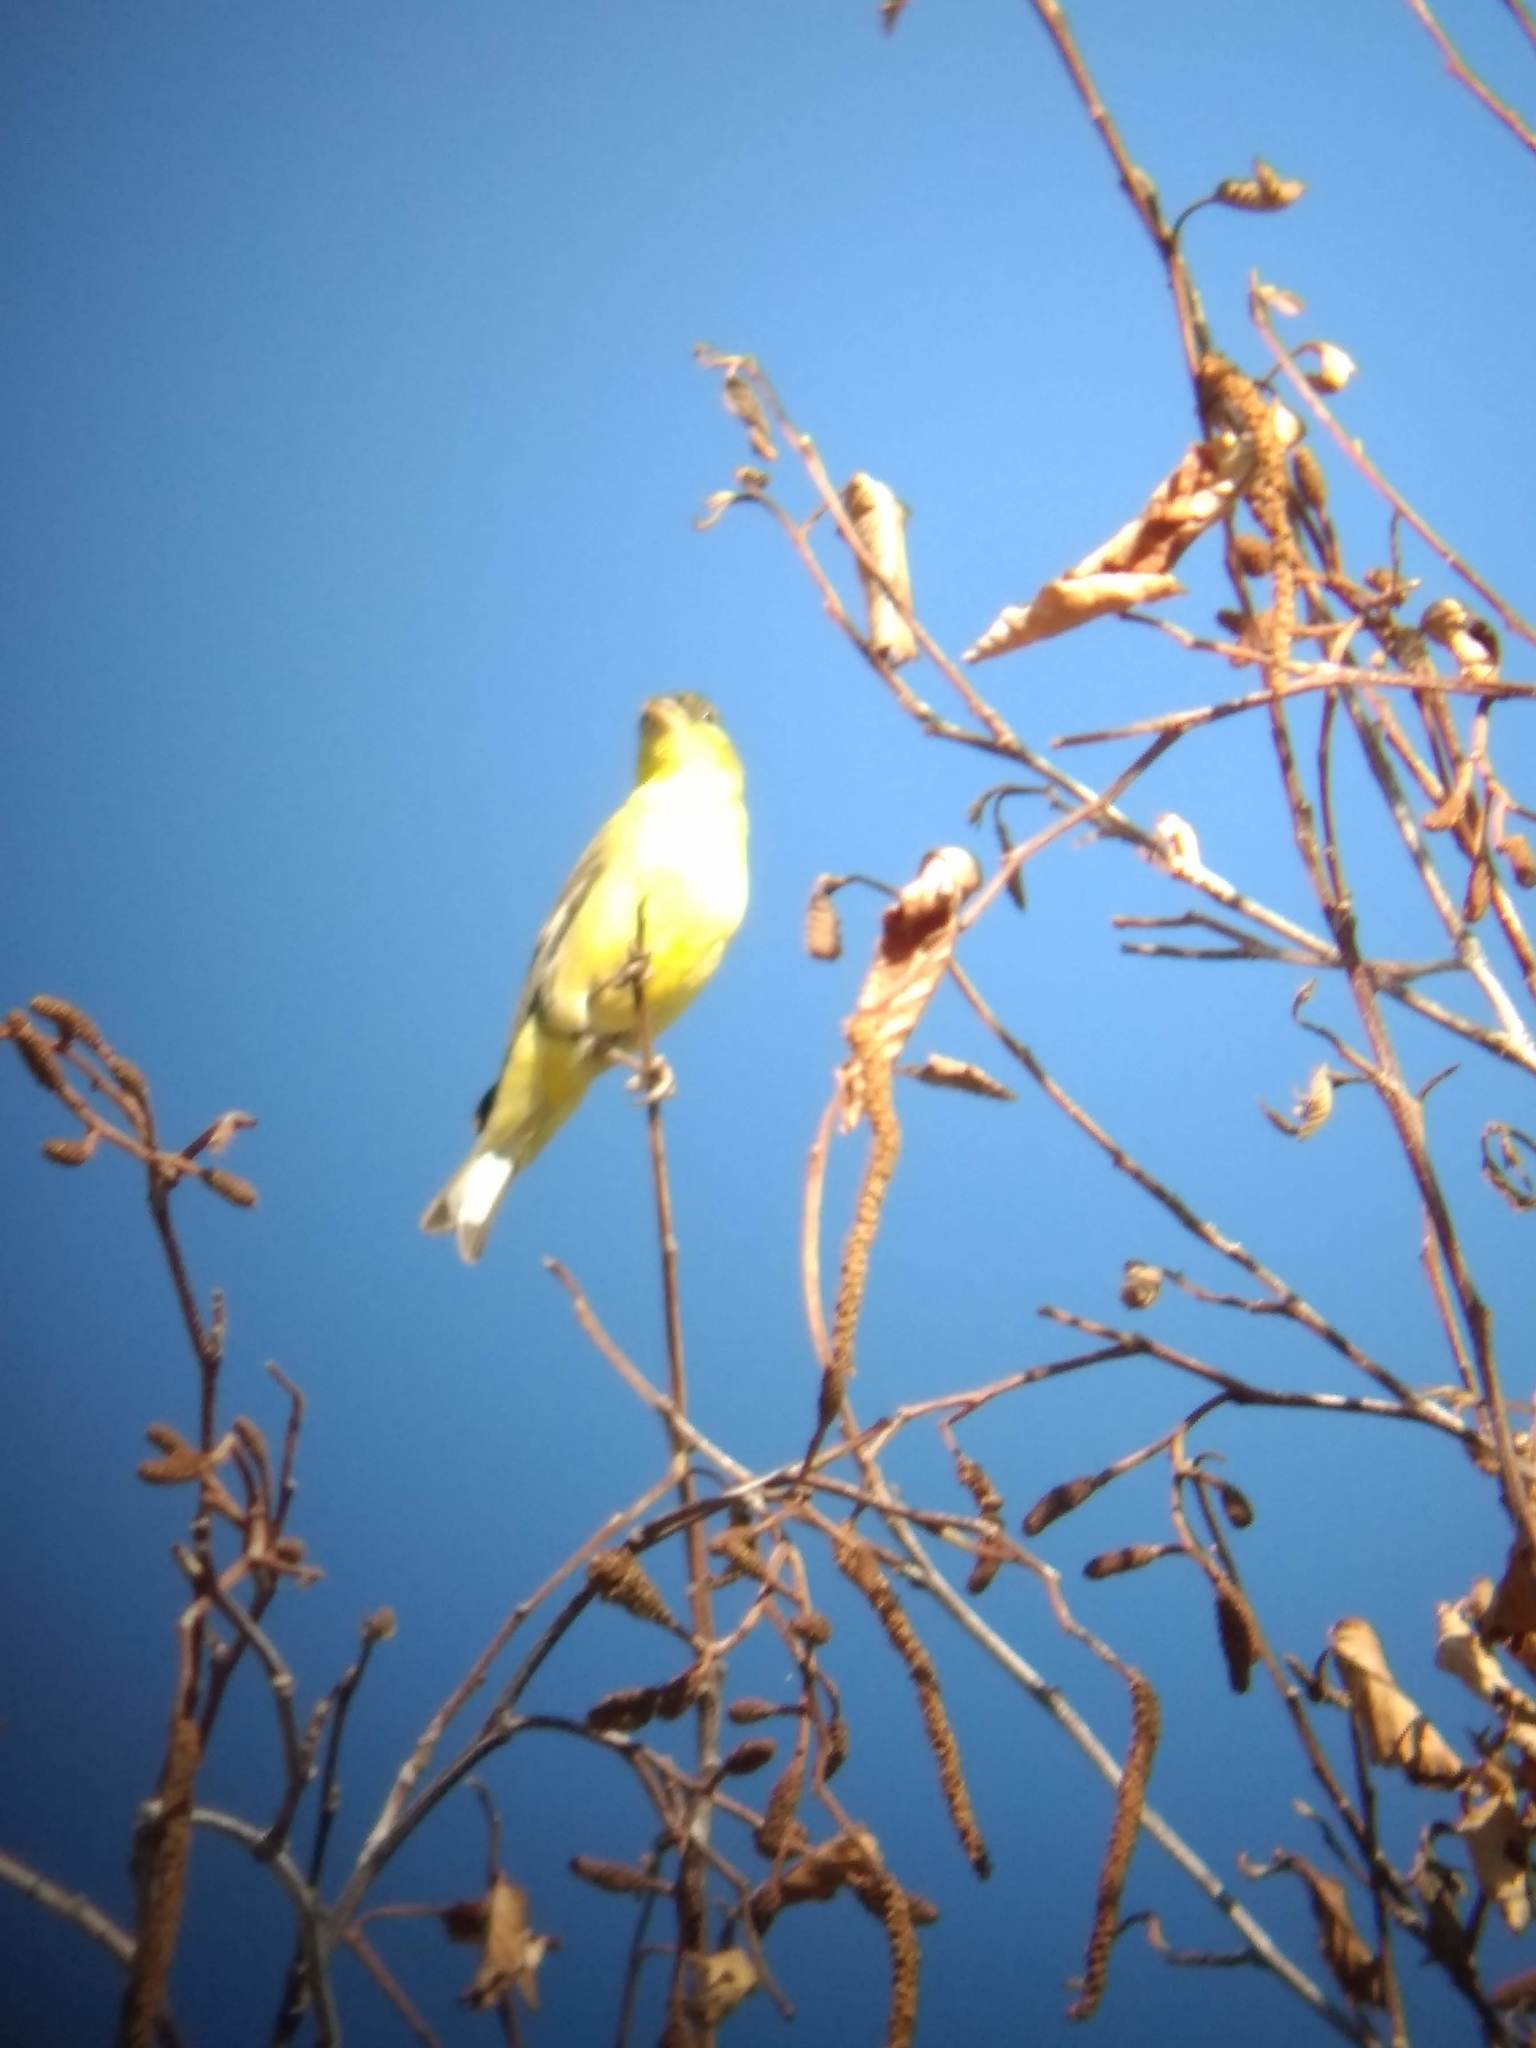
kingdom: Animalia
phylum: Chordata
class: Aves
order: Passeriformes
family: Fringillidae
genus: Spinus
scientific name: Spinus psaltria
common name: Lesser goldfinch
